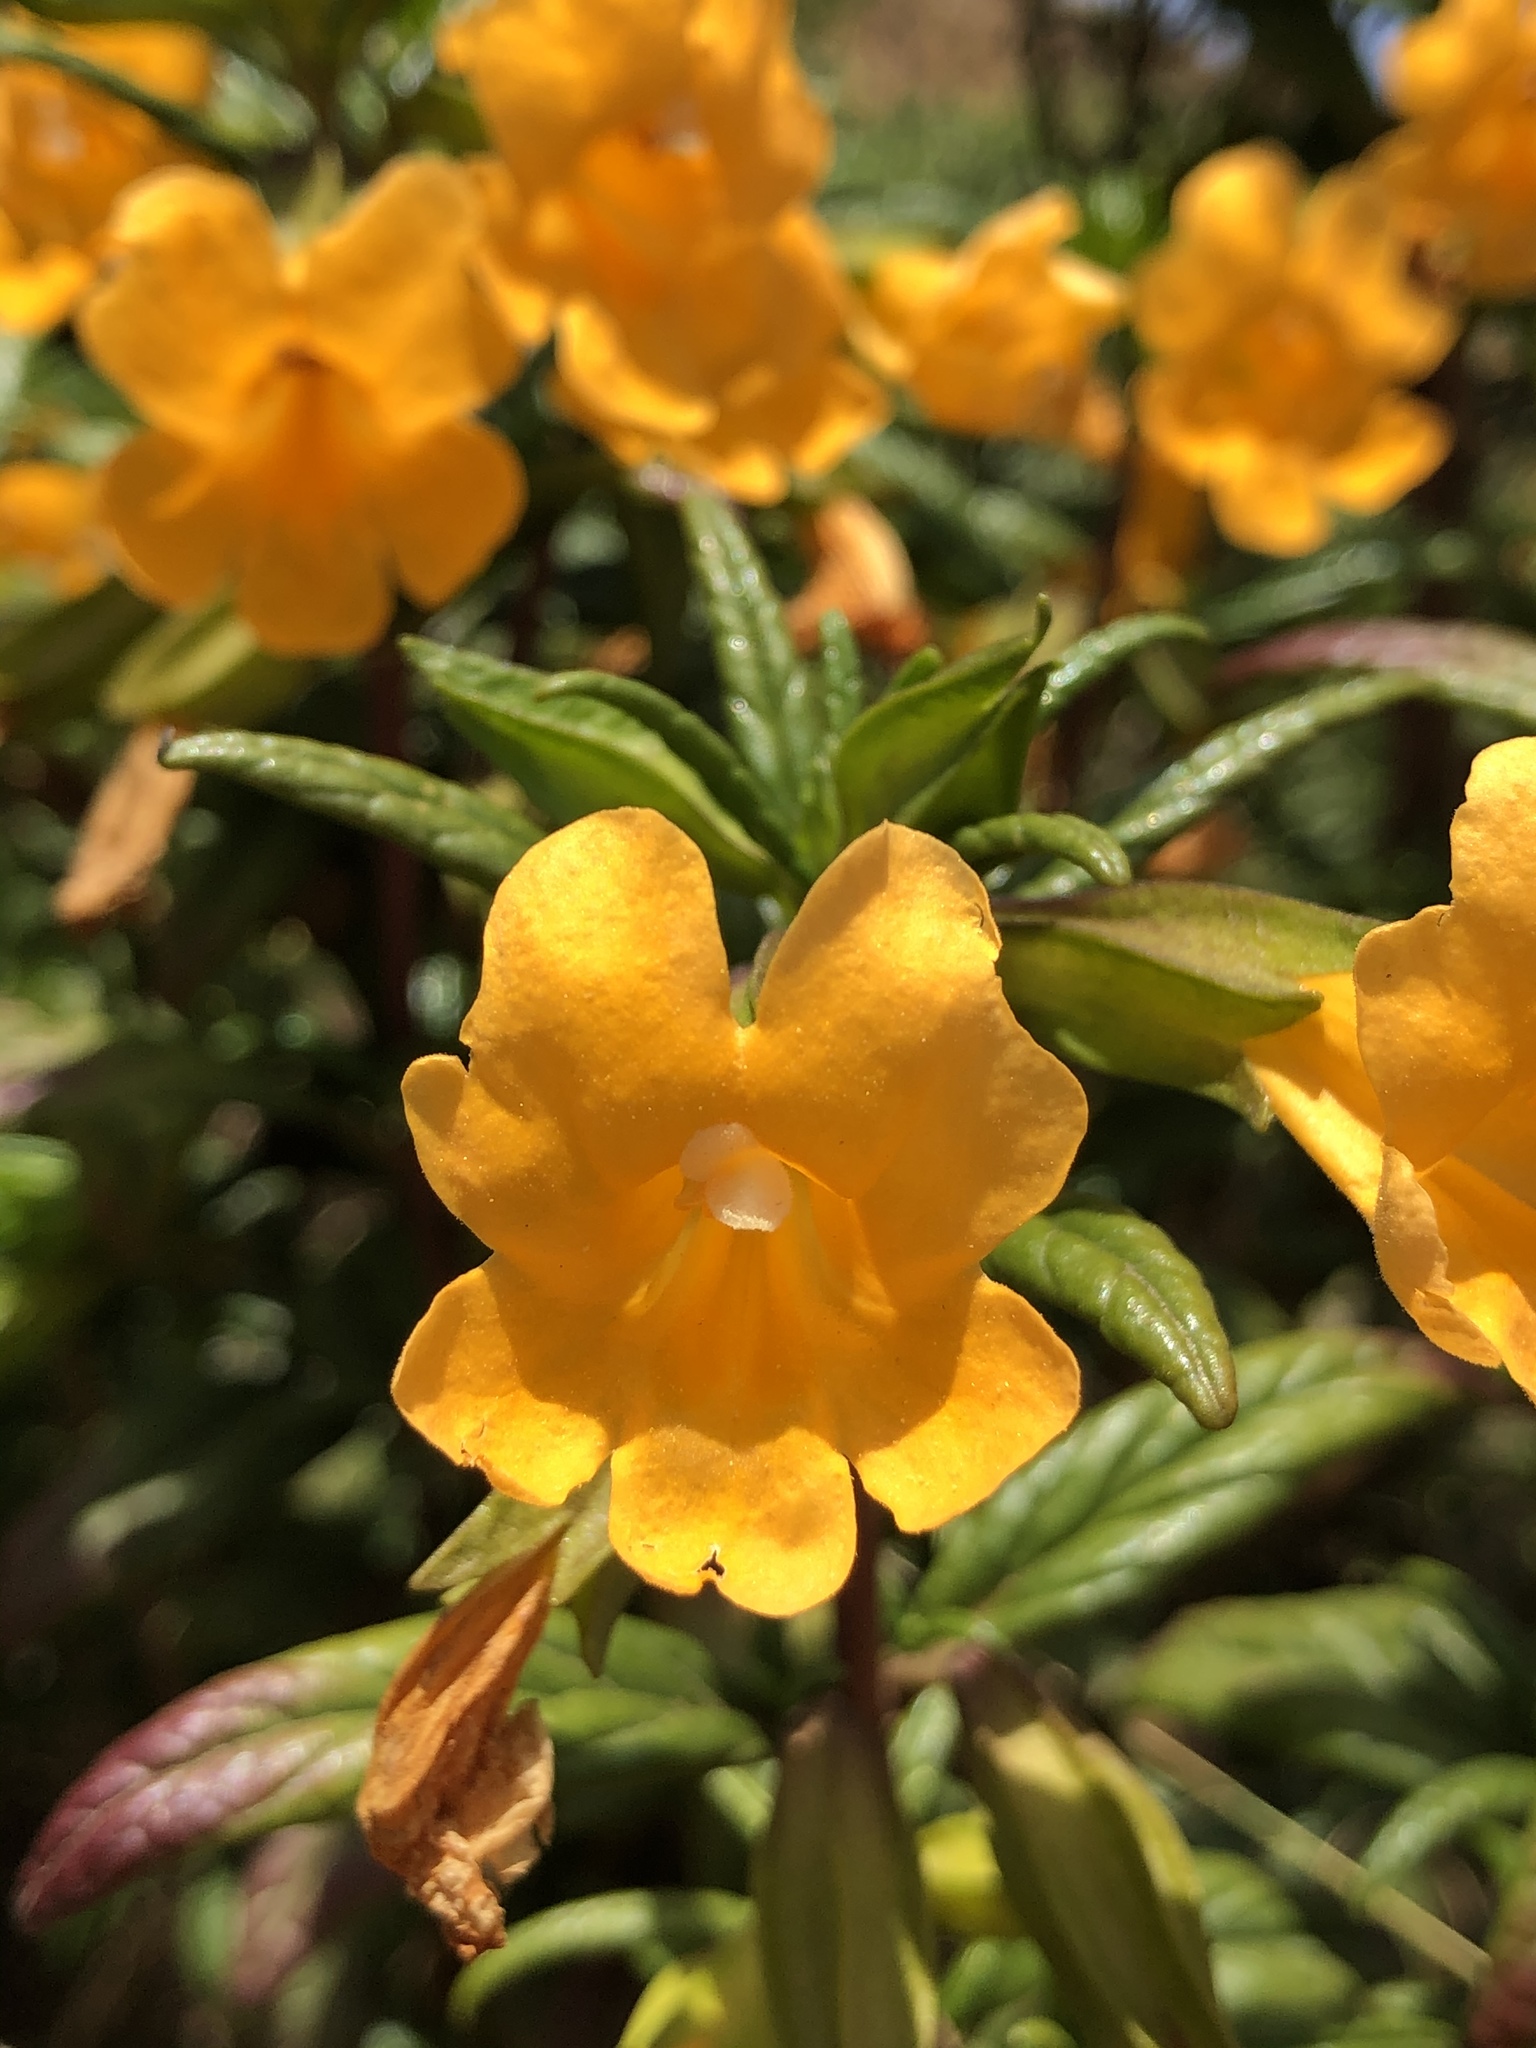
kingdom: Plantae
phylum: Tracheophyta
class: Magnoliopsida
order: Lamiales
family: Phrymaceae
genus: Diplacus
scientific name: Diplacus aurantiacus
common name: Bush monkey-flower
